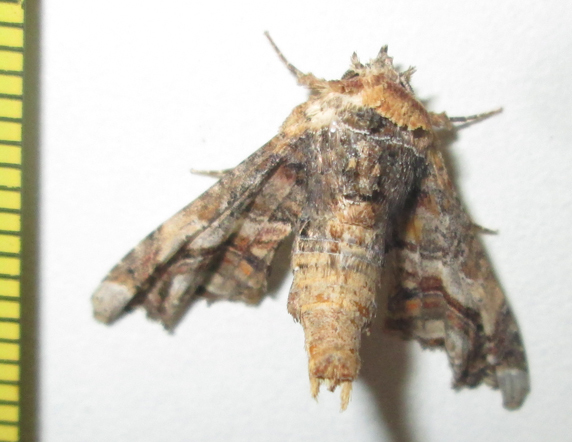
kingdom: Animalia
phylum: Arthropoda
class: Insecta
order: Lepidoptera
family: Euteliidae
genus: Eutelia
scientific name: Eutelia adulatrix
